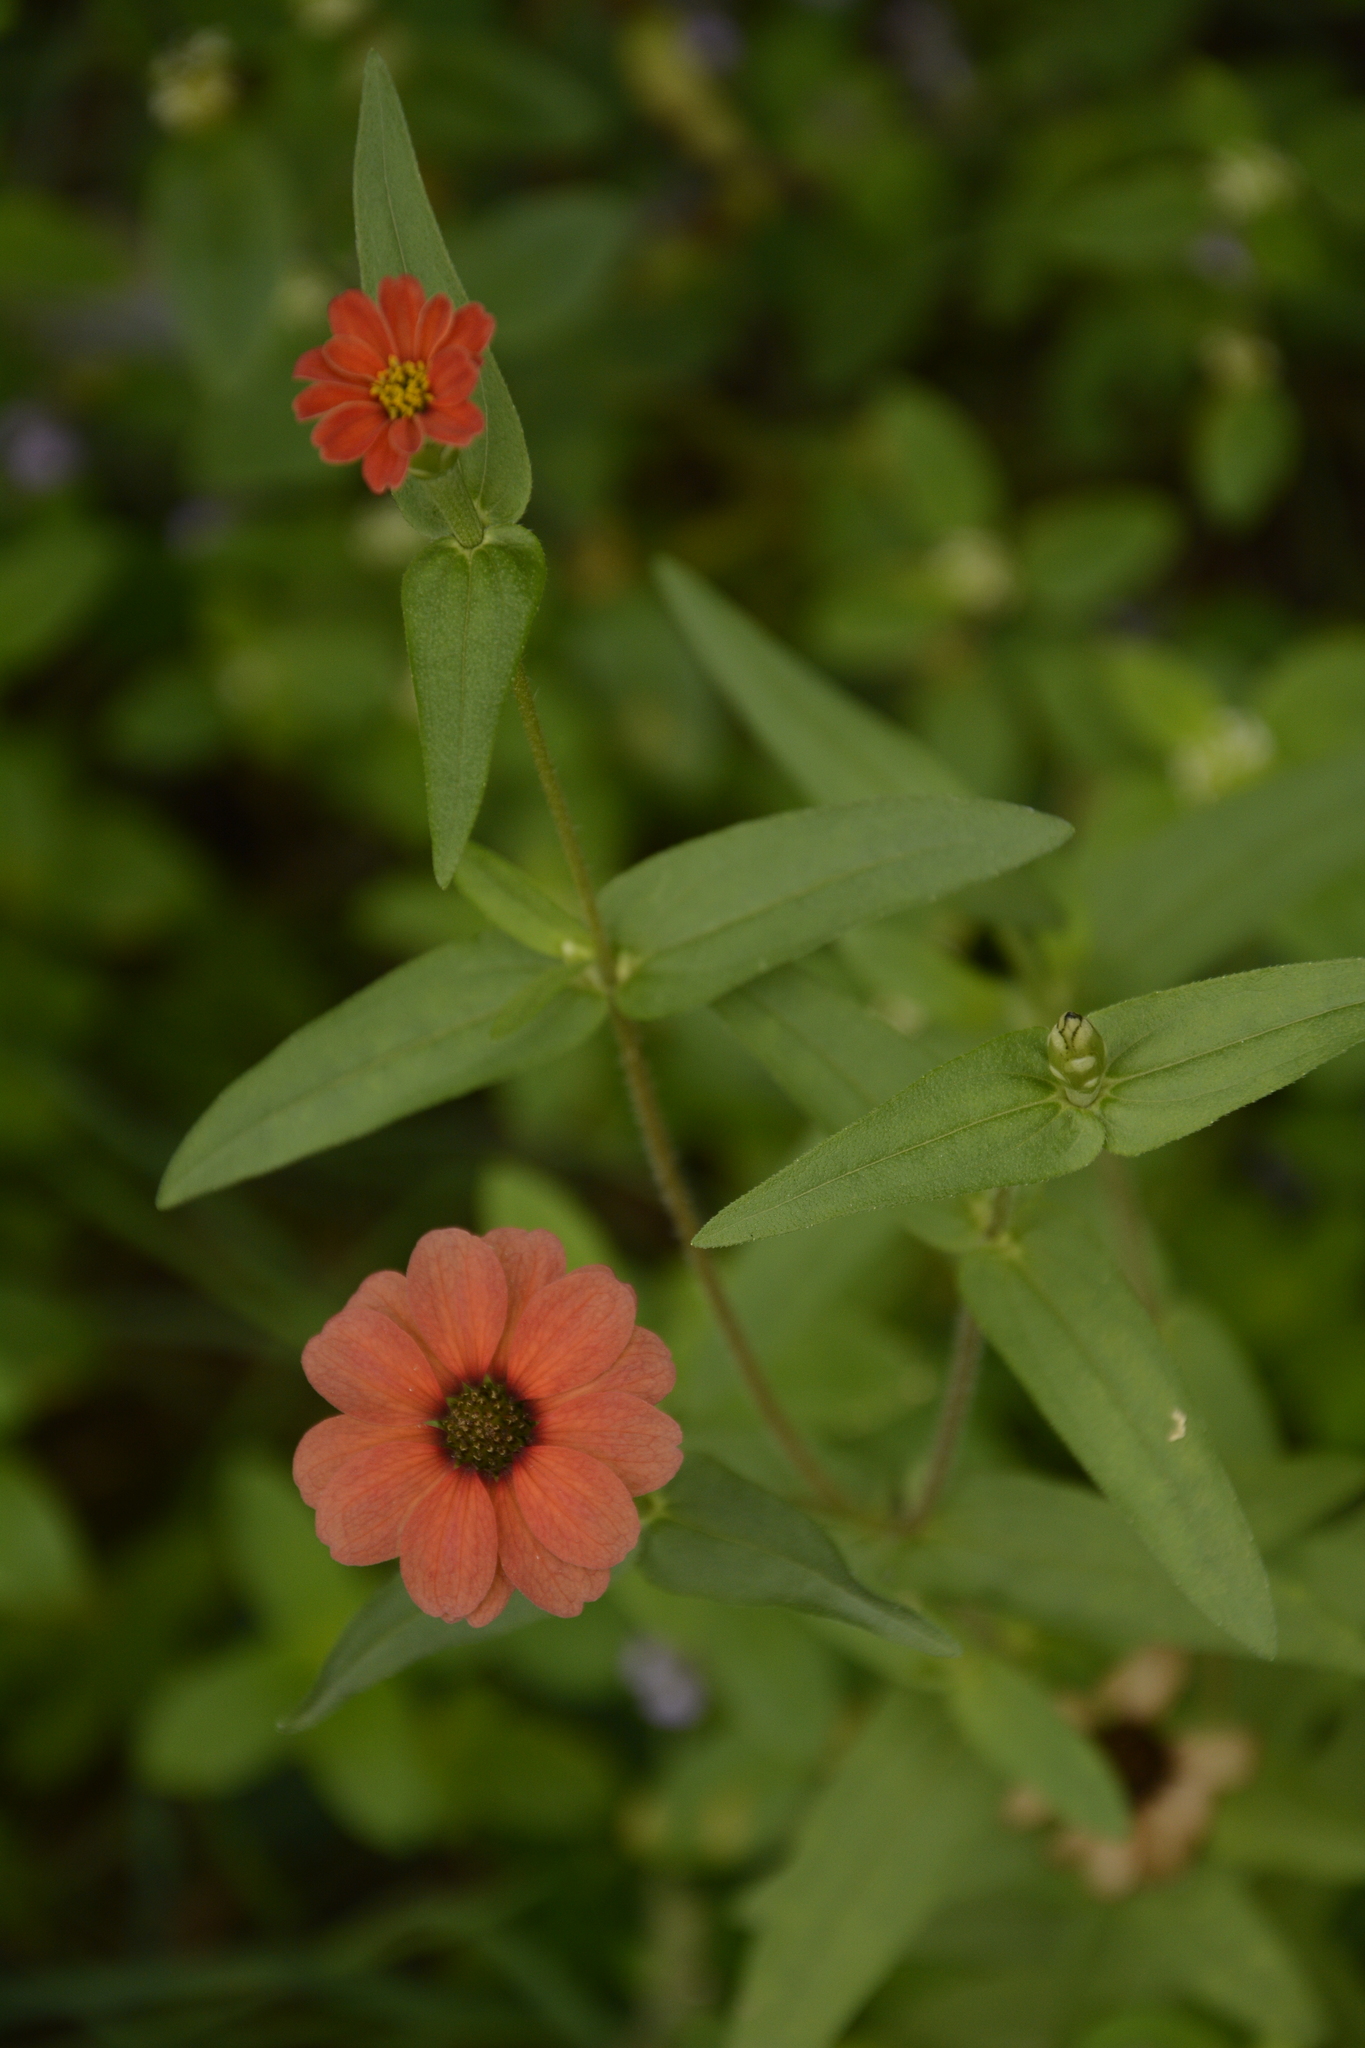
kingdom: Plantae
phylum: Tracheophyta
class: Magnoliopsida
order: Asterales
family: Asteraceae
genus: Zinnia
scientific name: Zinnia peruviana
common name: Peruvian zinnia
